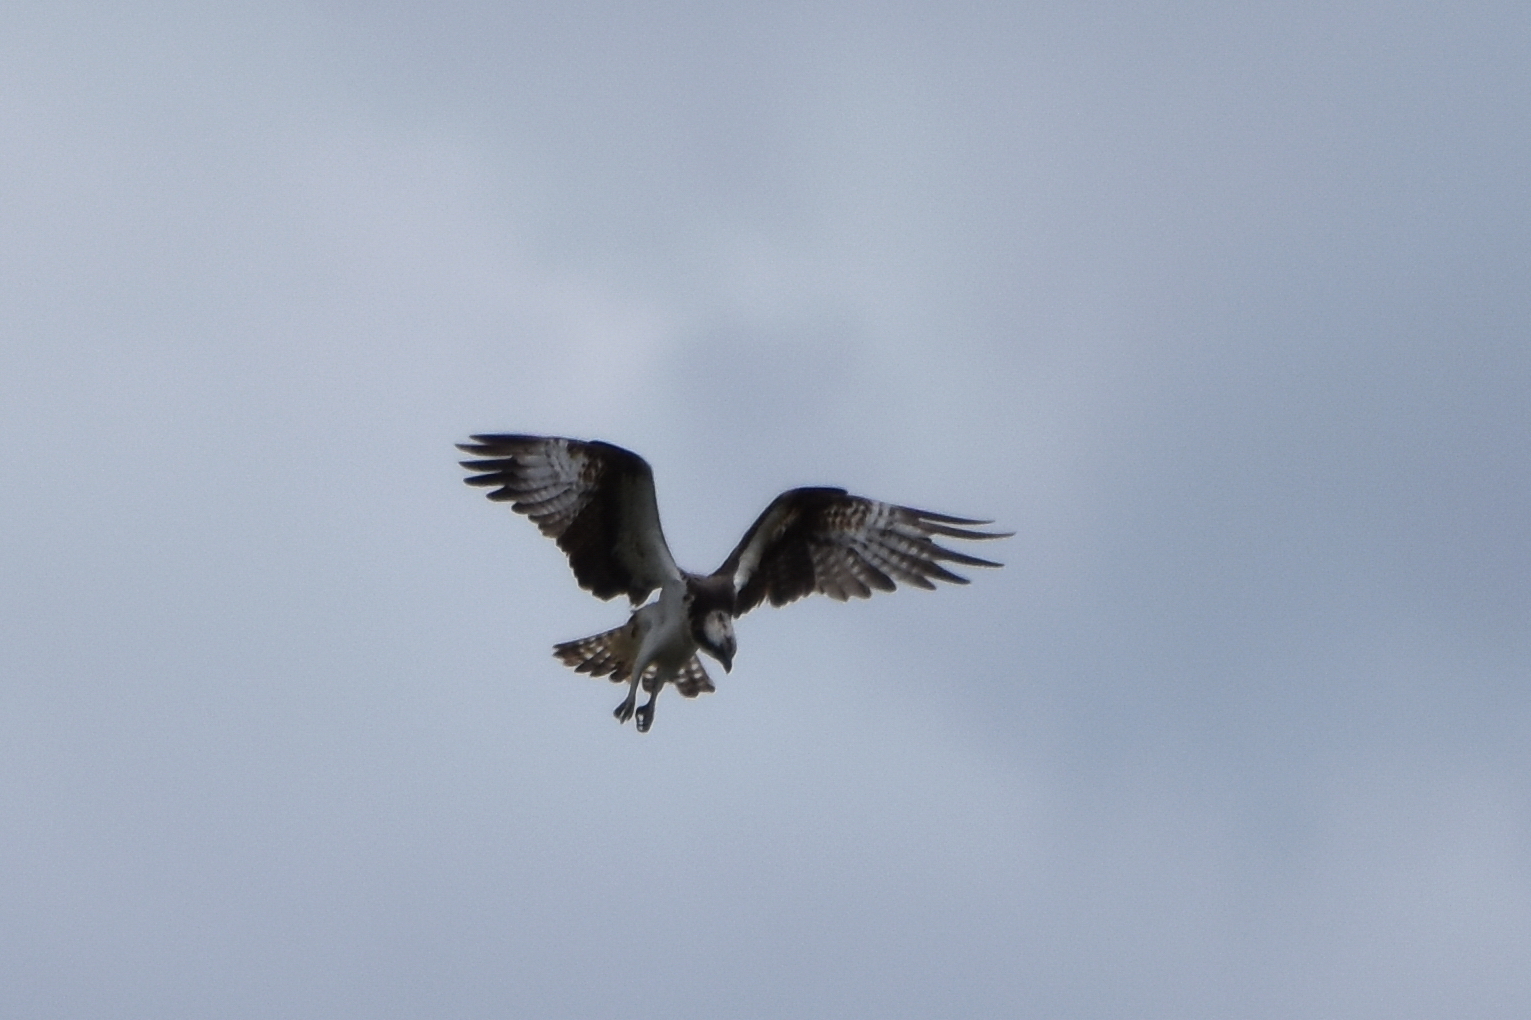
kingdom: Animalia
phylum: Chordata
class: Aves
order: Accipitriformes
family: Pandionidae
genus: Pandion
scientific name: Pandion haliaetus
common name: Osprey
